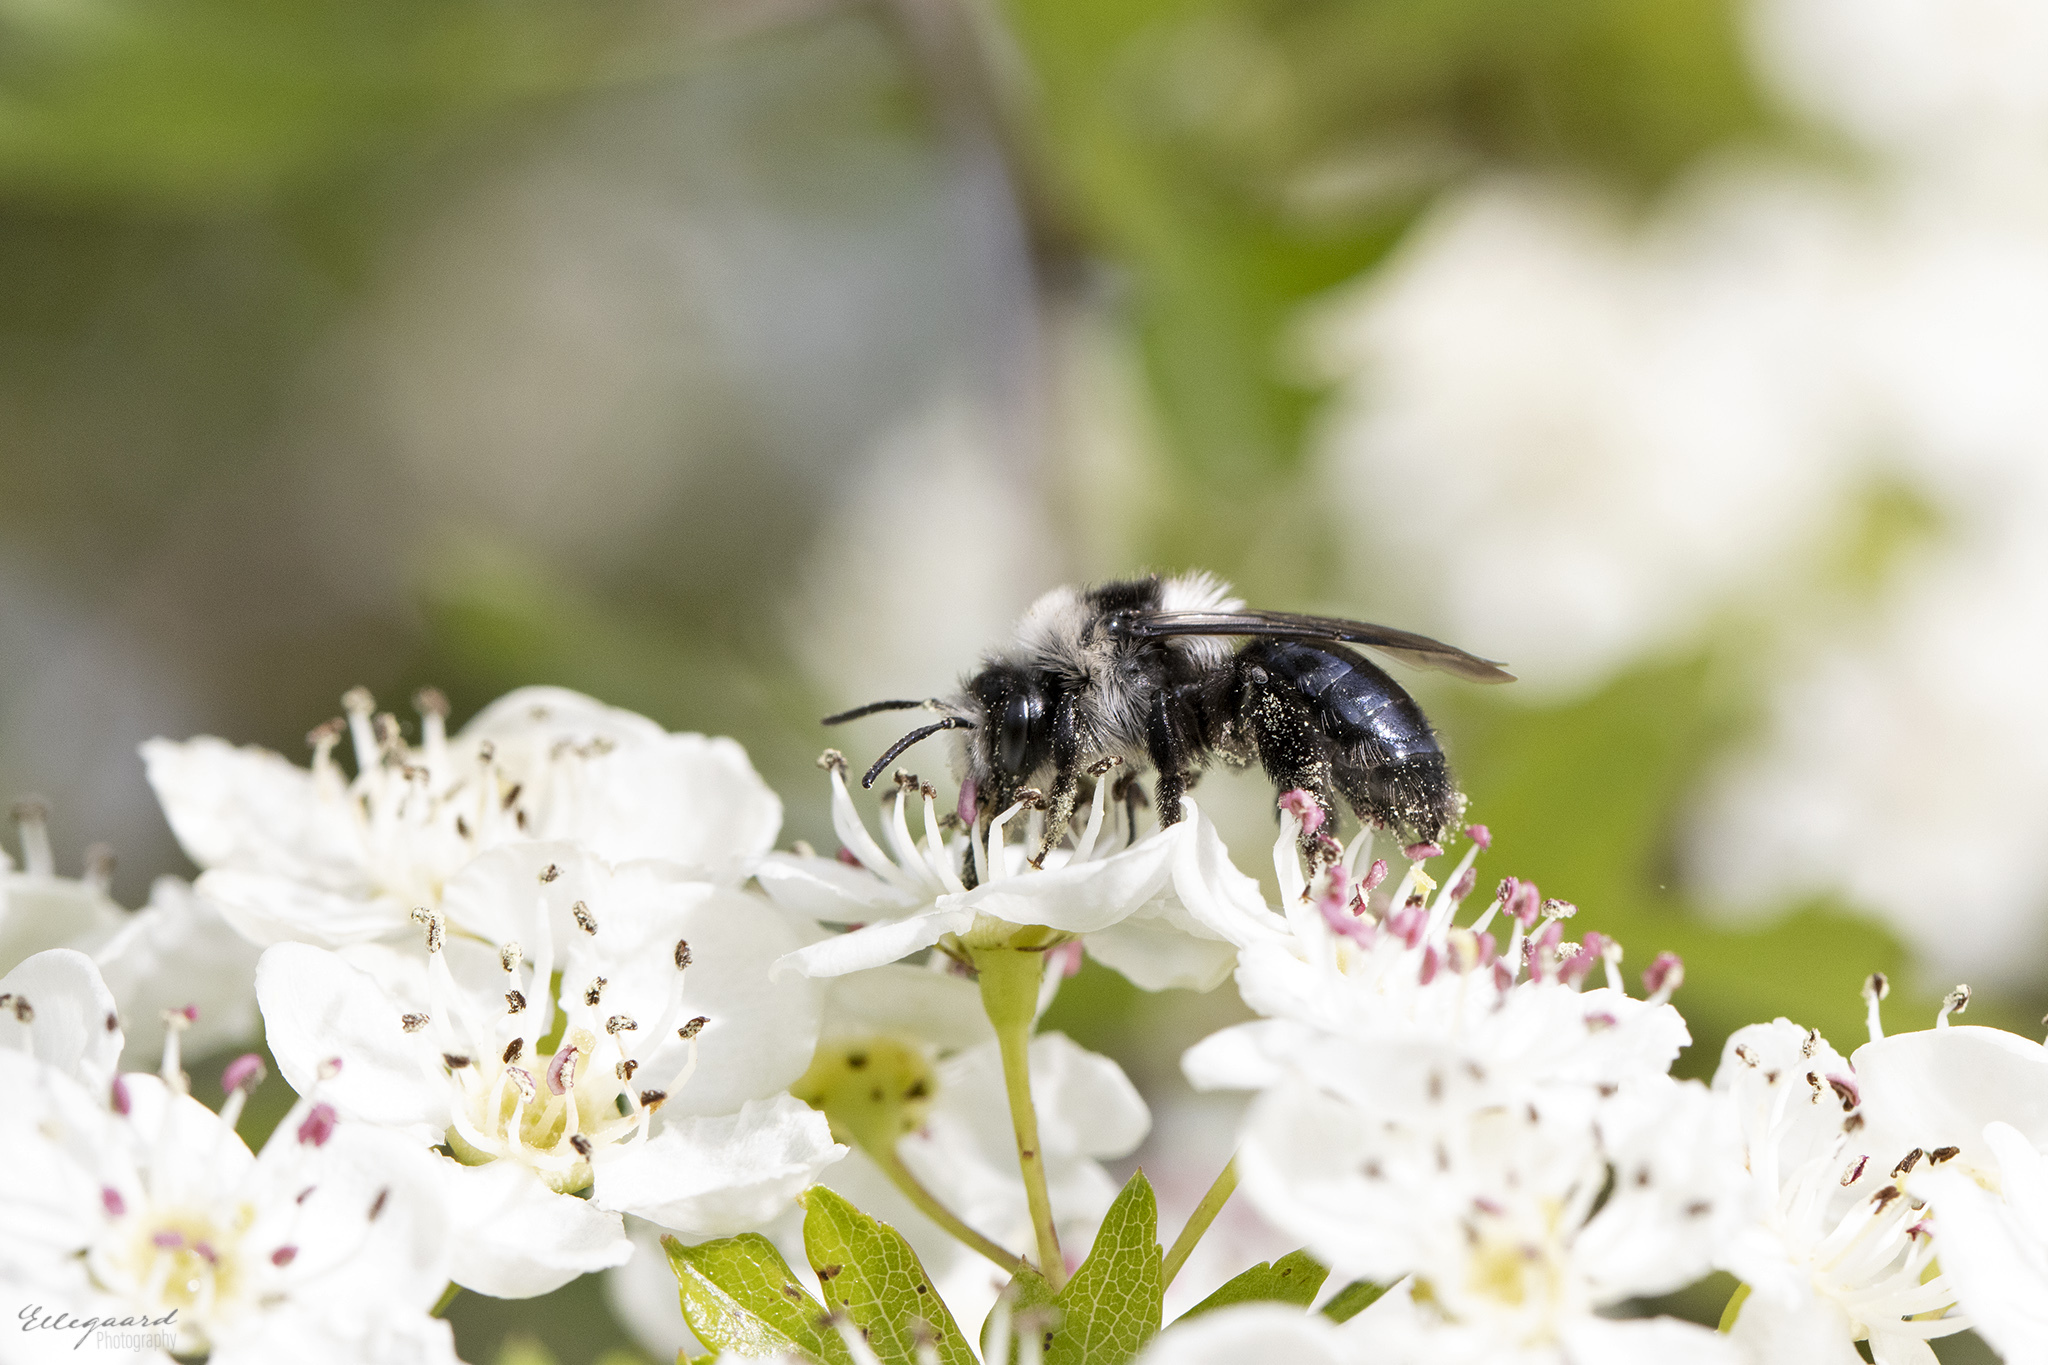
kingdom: Animalia
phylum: Arthropoda
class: Insecta
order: Hymenoptera
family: Andrenidae
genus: Andrena
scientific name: Andrena cineraria
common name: Ashy mining bee
